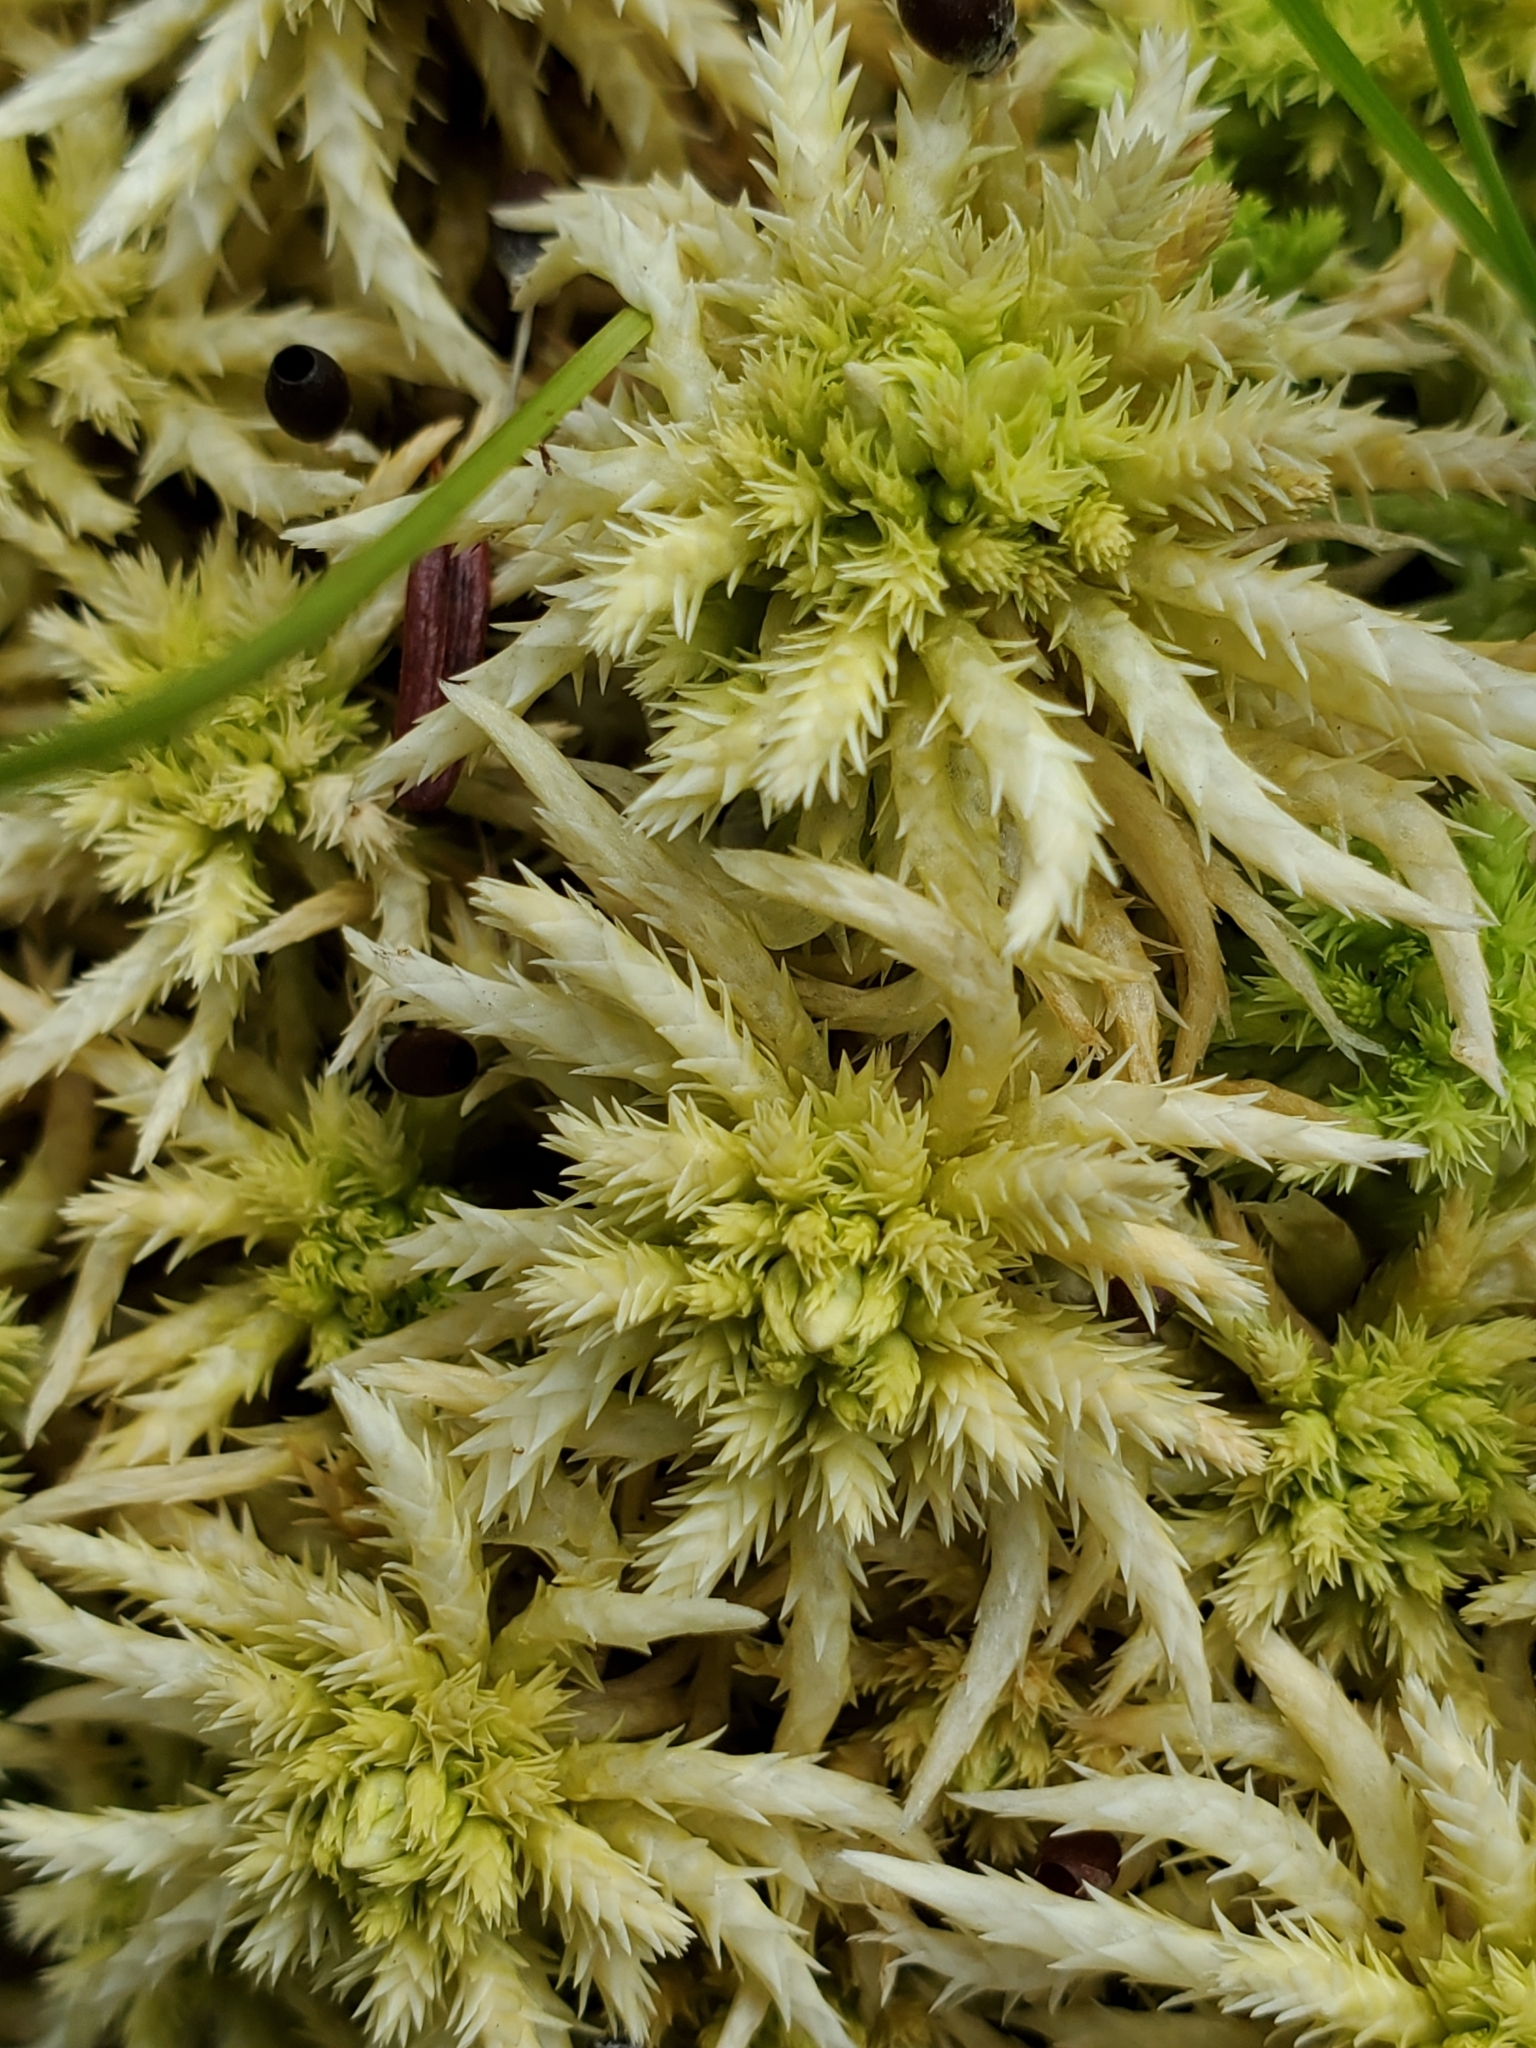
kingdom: Plantae
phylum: Bryophyta
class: Sphagnopsida
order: Sphagnales
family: Sphagnaceae
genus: Sphagnum
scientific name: Sphagnum squarrosum
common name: Shaggy peat moss
